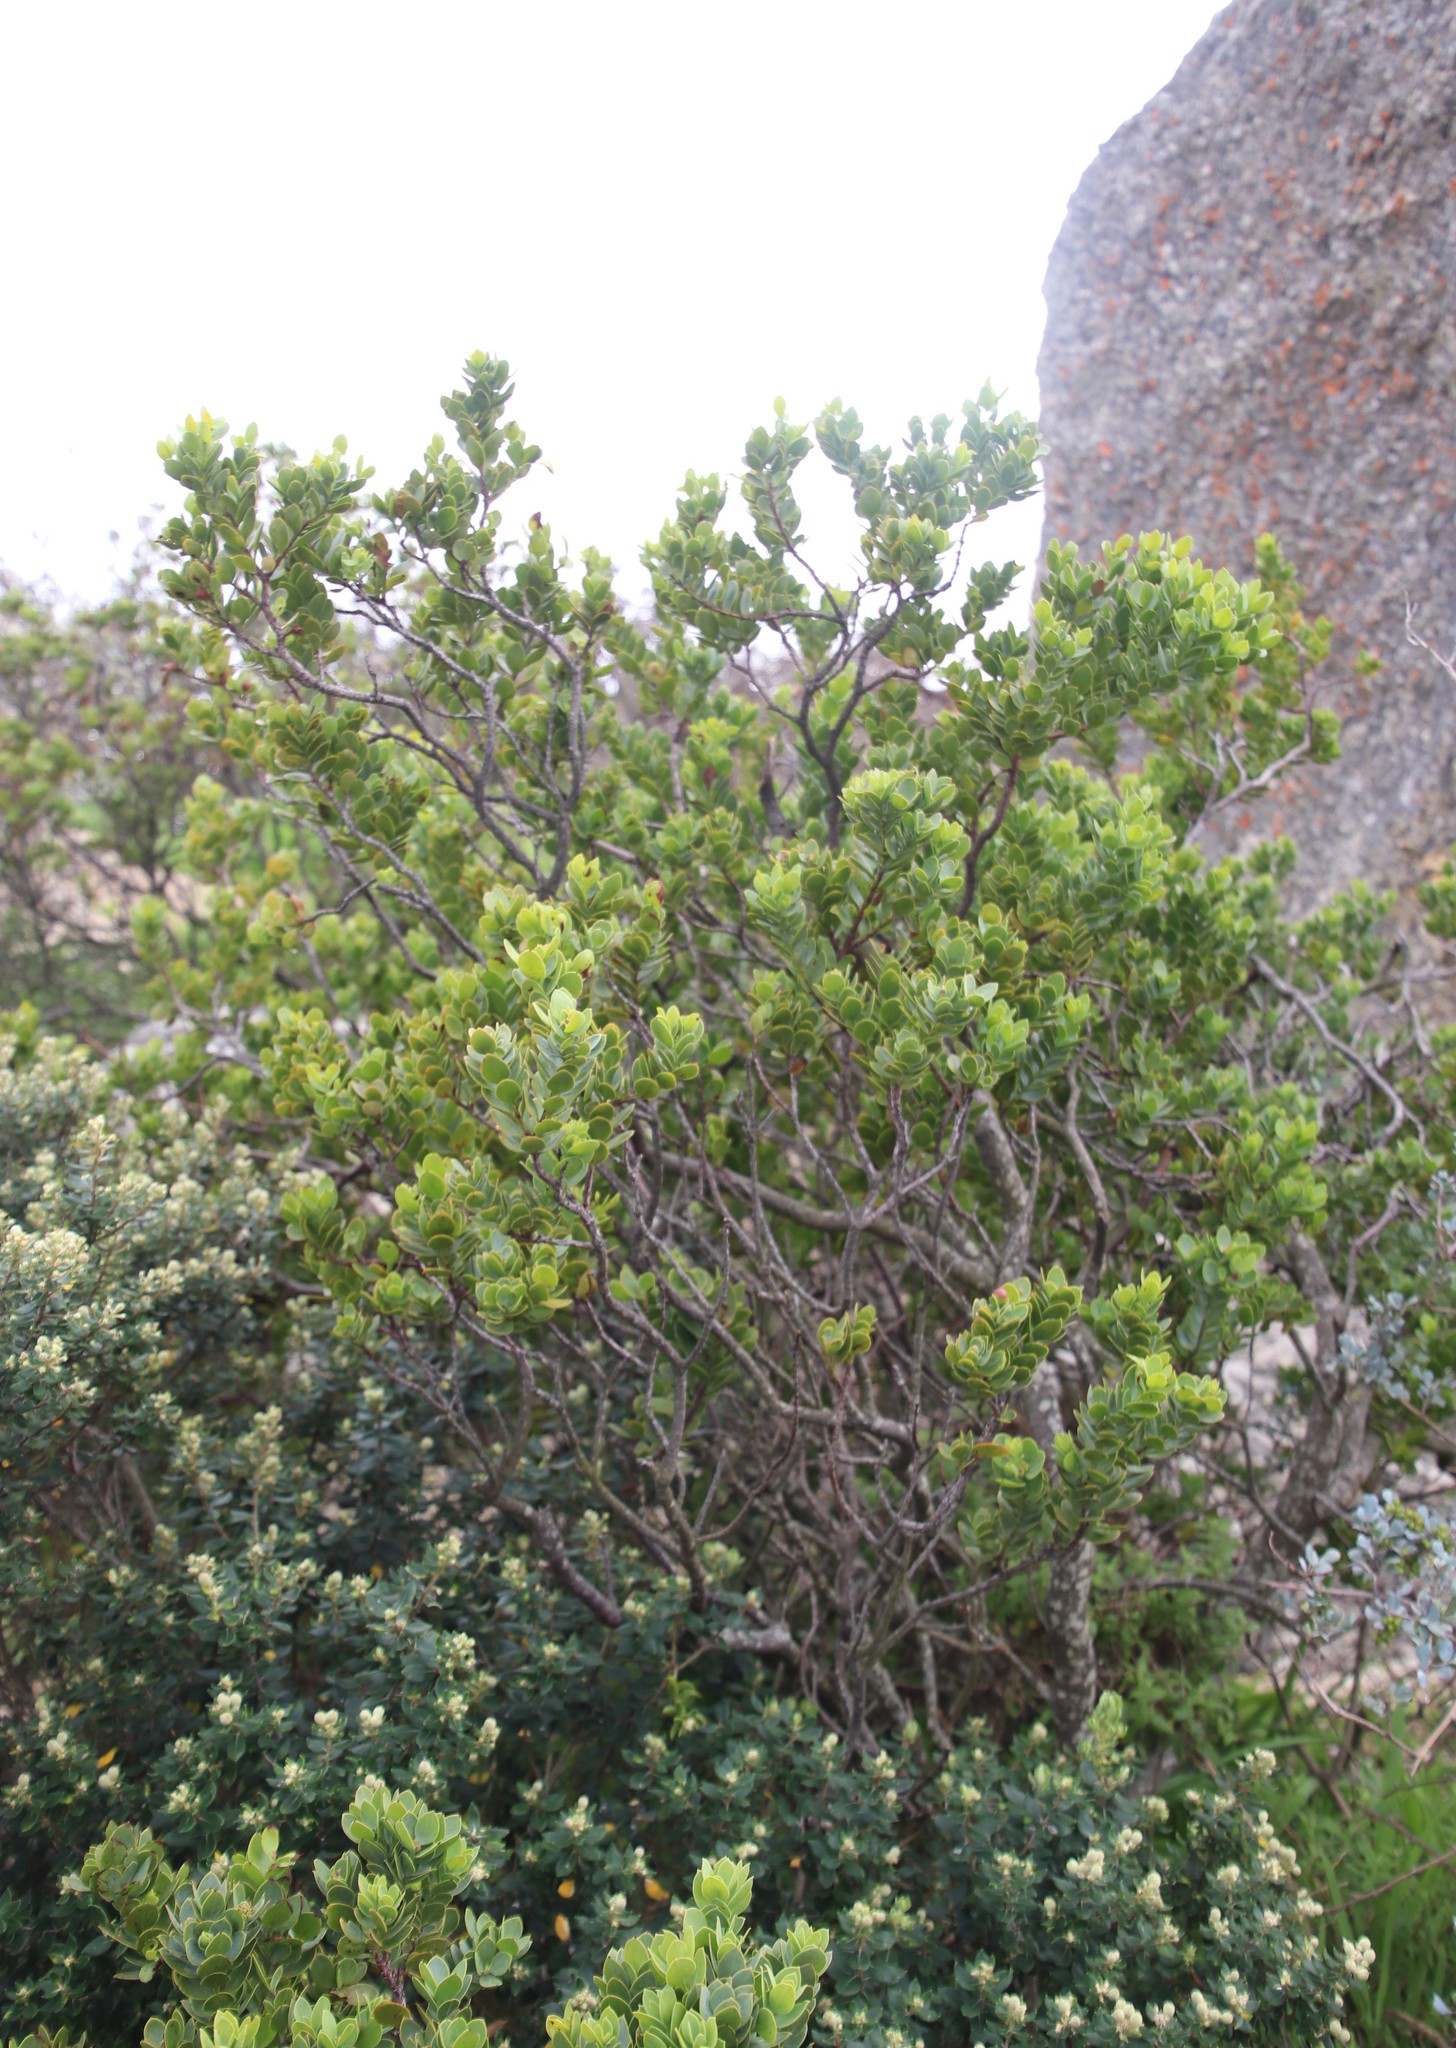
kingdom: Plantae
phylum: Tracheophyta
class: Magnoliopsida
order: Santalales
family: Santalaceae
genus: Osyris
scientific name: Osyris compressa
